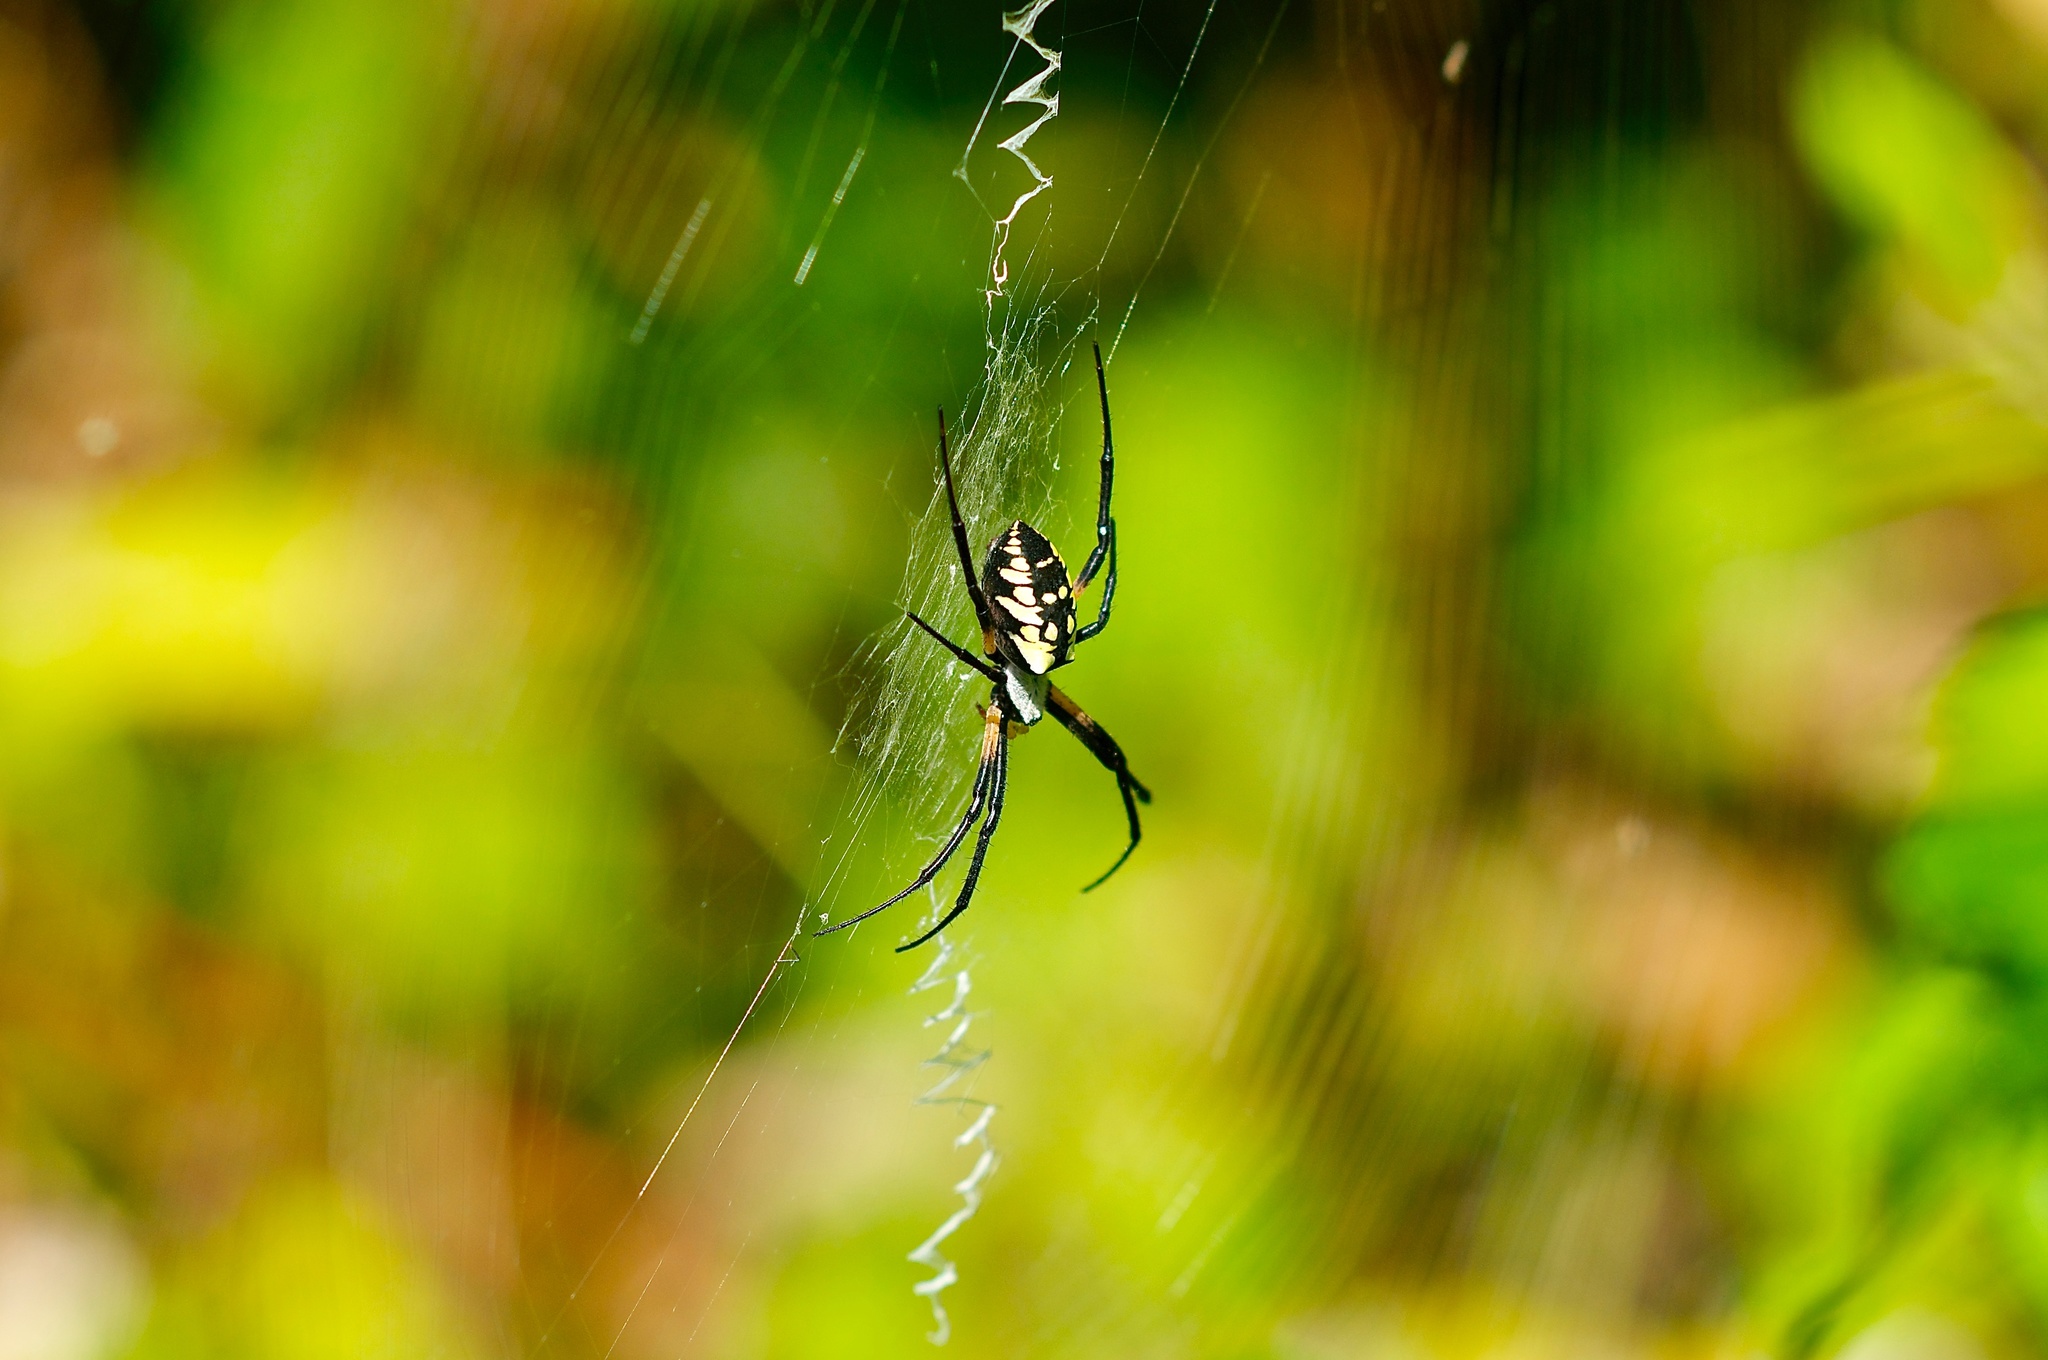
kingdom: Animalia
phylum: Arthropoda
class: Arachnida
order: Araneae
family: Araneidae
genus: Argiope
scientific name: Argiope aurantia
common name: Orb weavers
